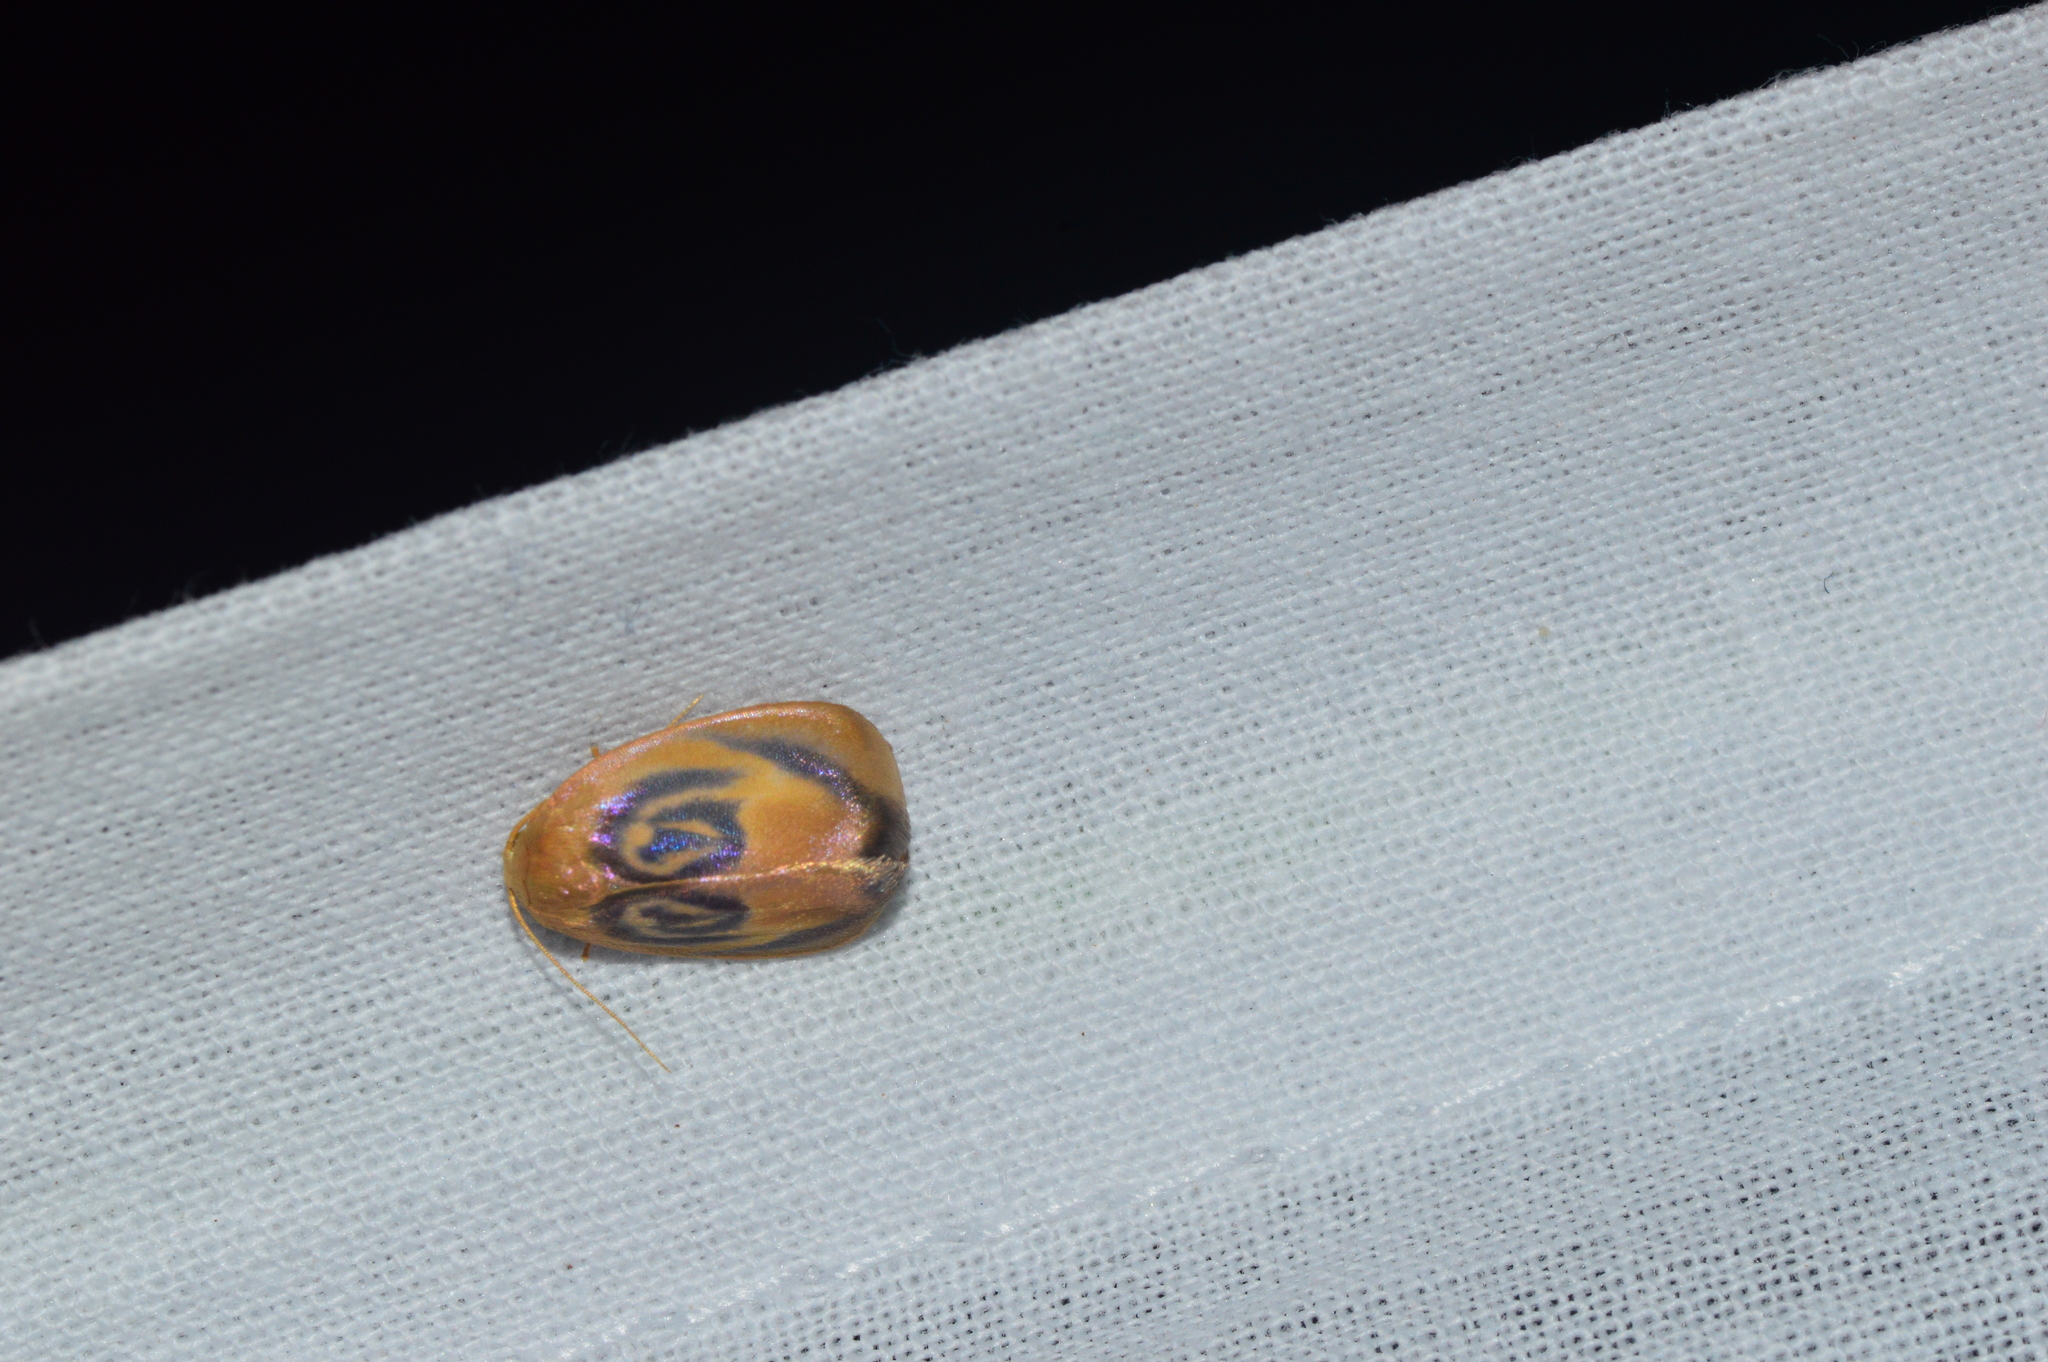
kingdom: Animalia
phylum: Arthropoda
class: Insecta
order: Lepidoptera
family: Erebidae
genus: Trischalis
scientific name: Trischalis subaurana
